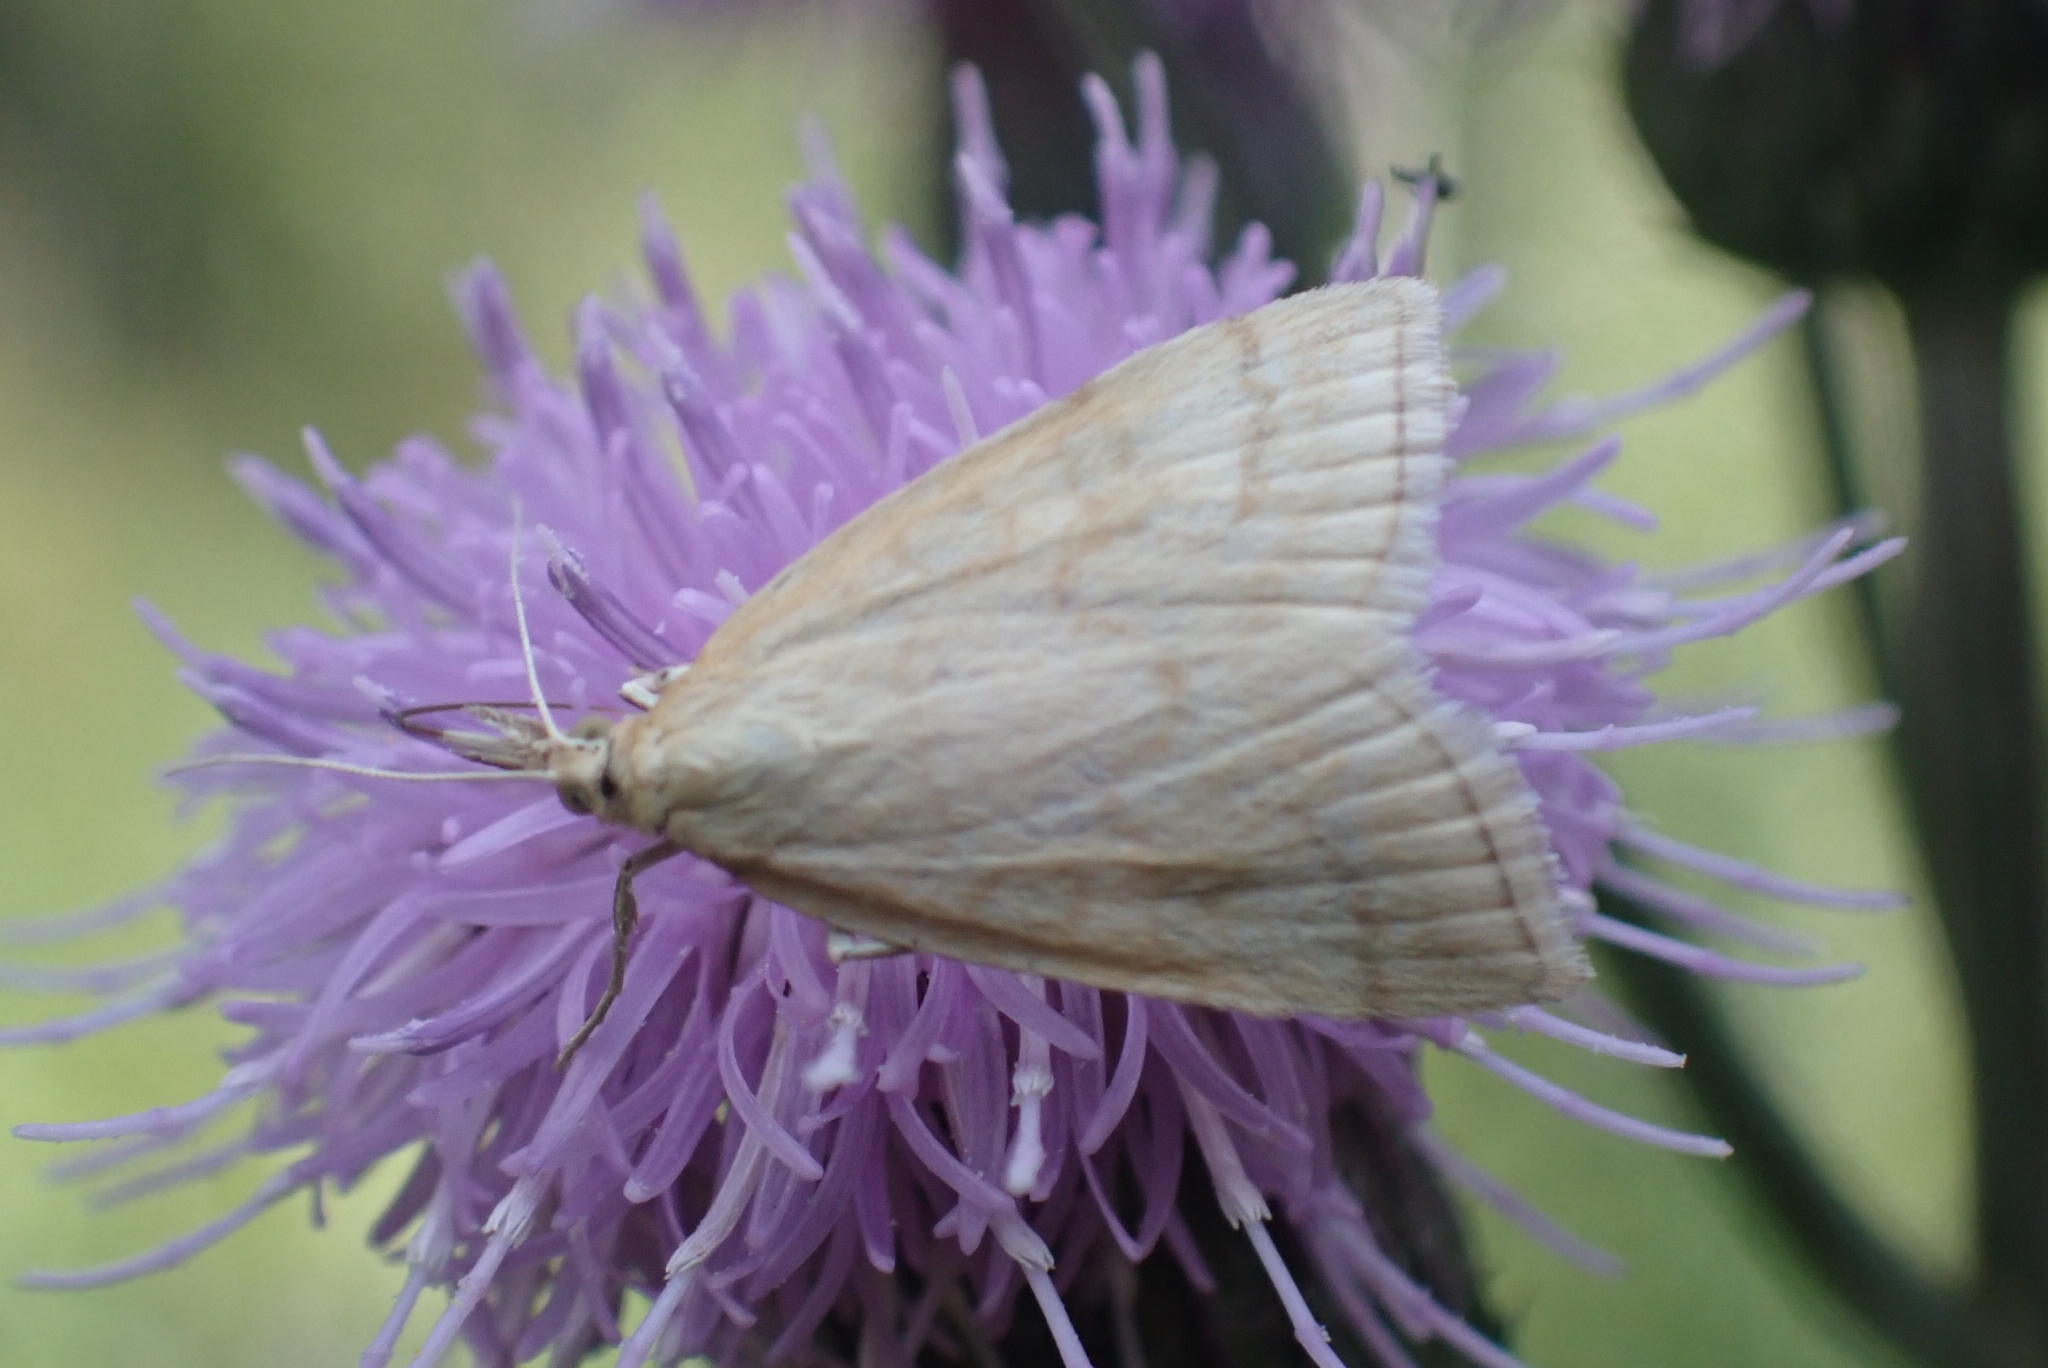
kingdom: Animalia
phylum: Arthropoda
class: Insecta
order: Lepidoptera
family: Crambidae
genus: Udea
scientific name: Udea lutealis
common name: Pale straw pearl
